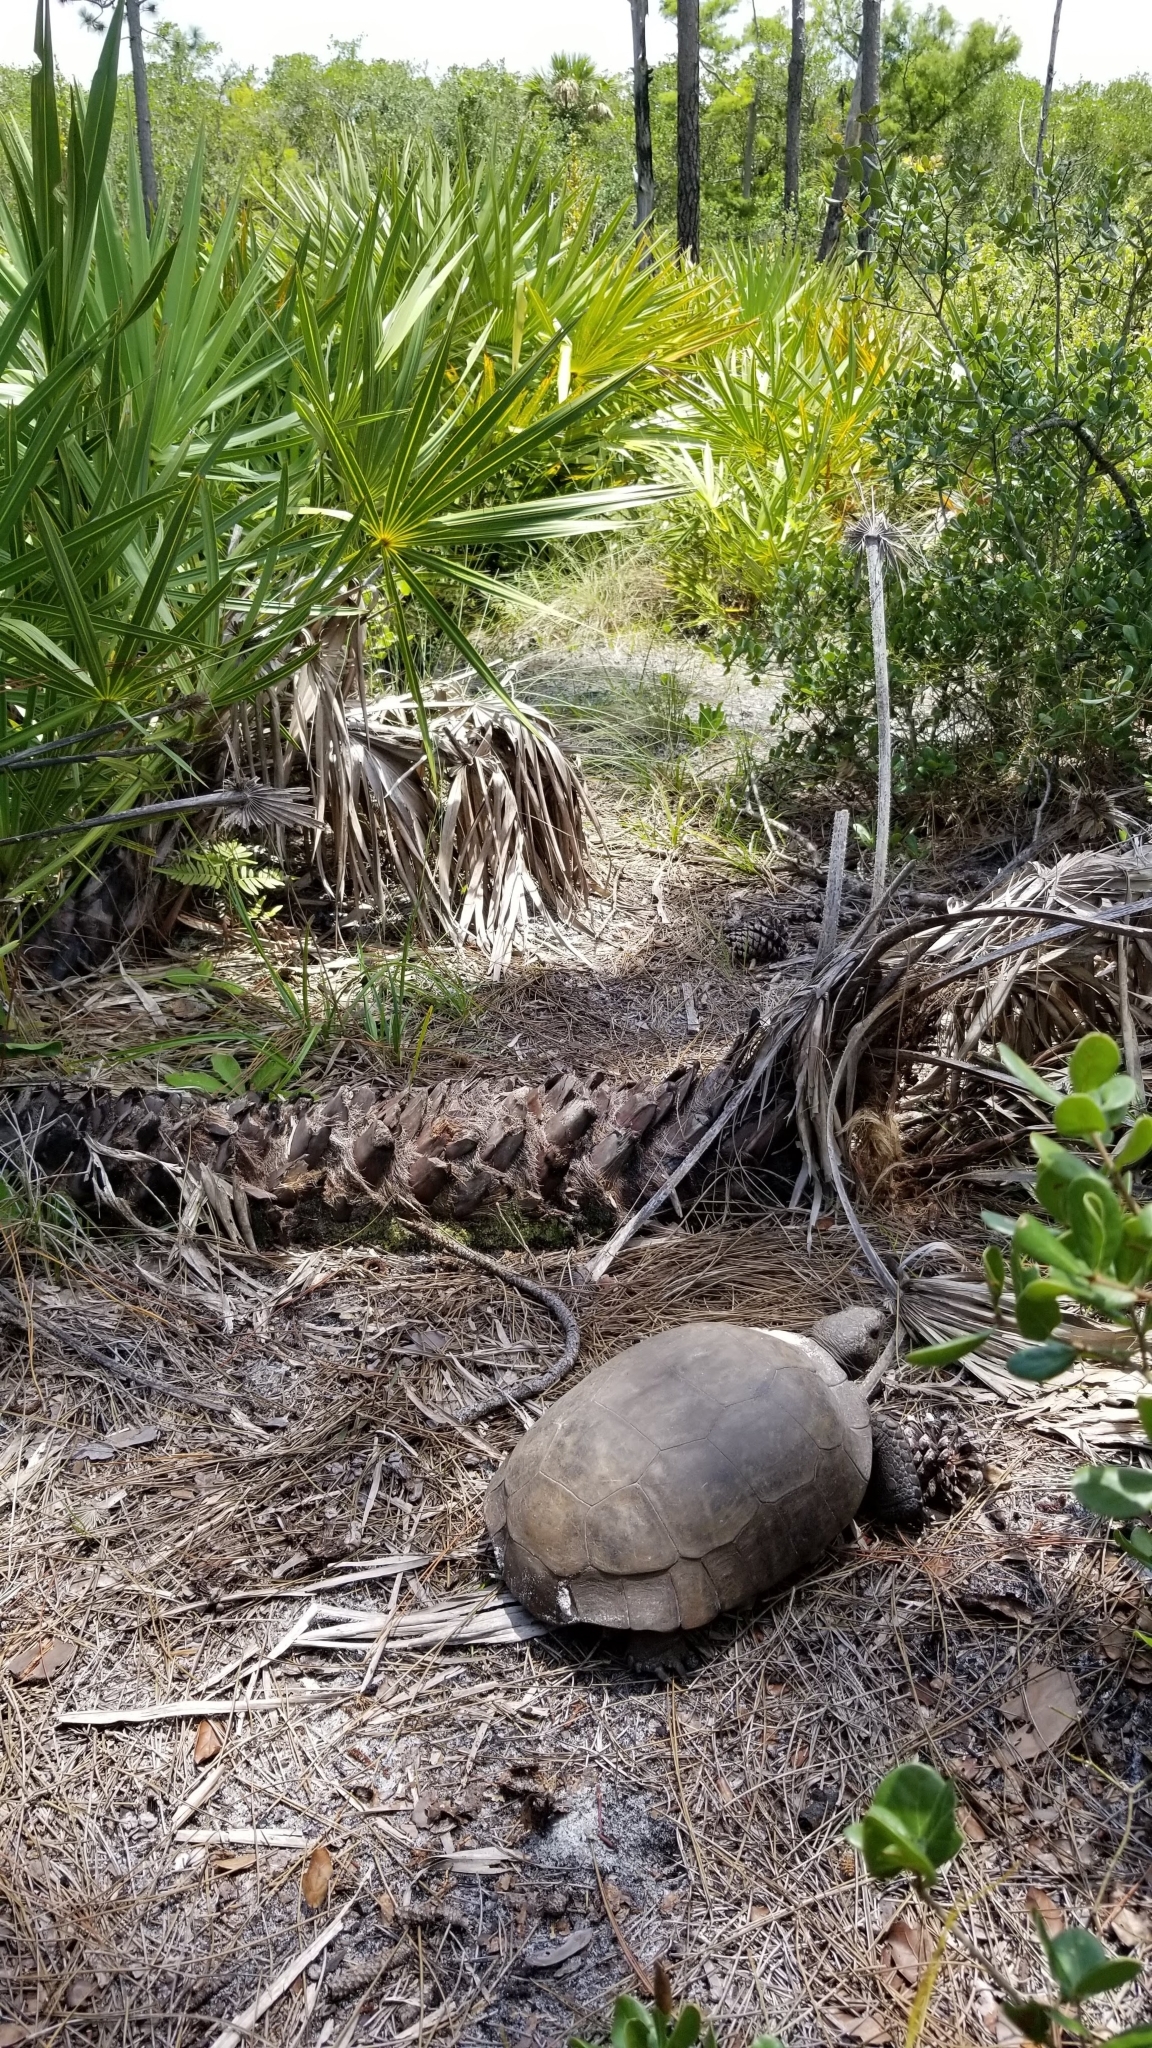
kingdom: Animalia
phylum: Chordata
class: Testudines
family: Testudinidae
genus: Gopherus
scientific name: Gopherus polyphemus
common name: Florida gopher tortoise
